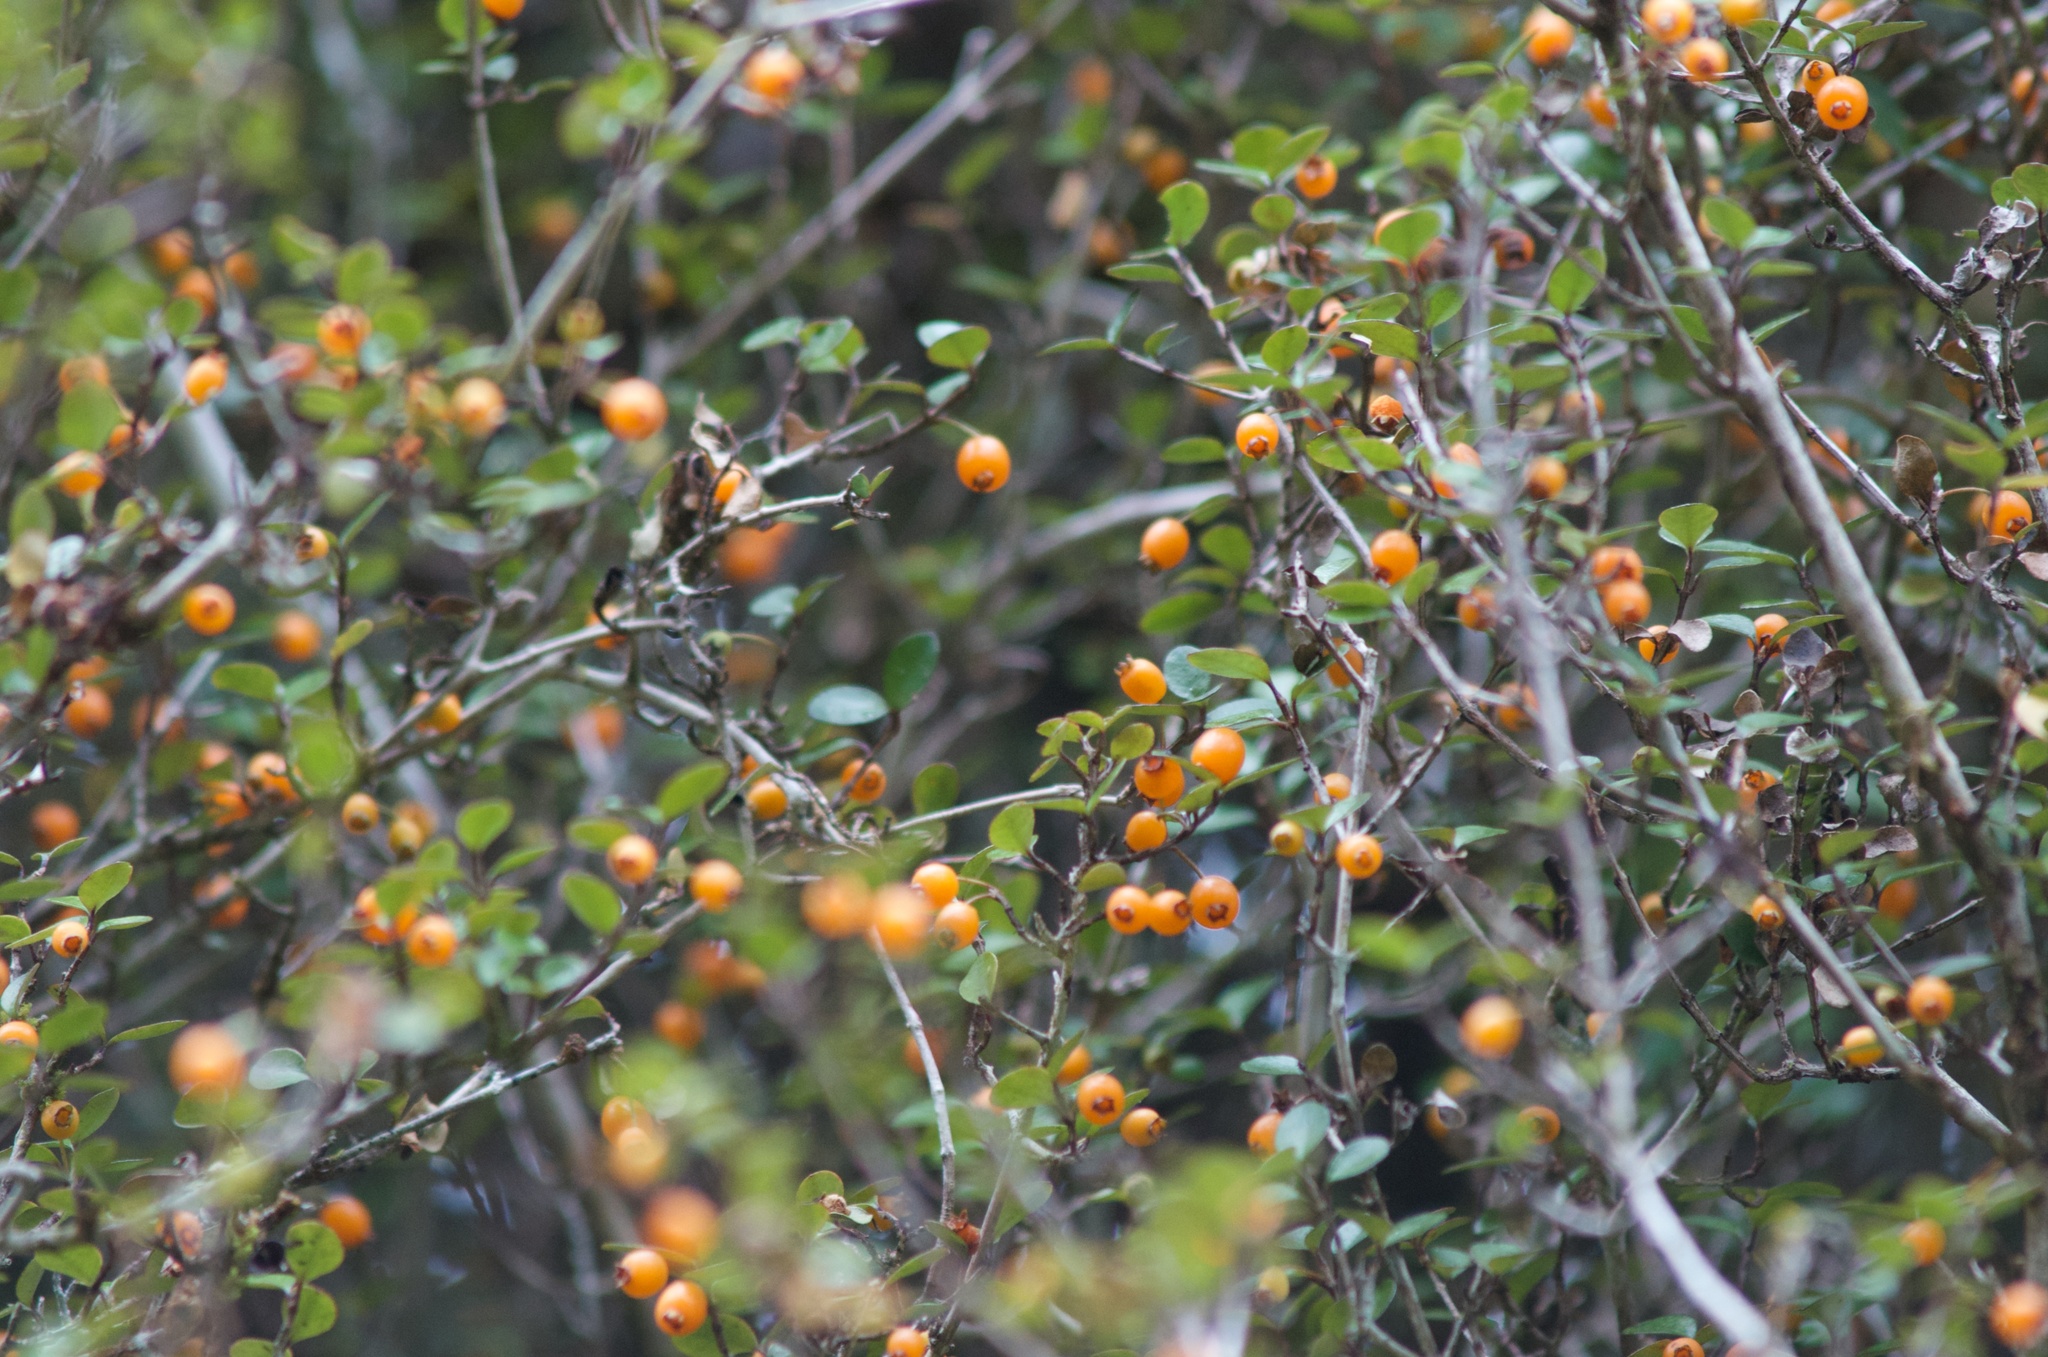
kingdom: Plantae
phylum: Tracheophyta
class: Magnoliopsida
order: Myrtales
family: Myrtaceae
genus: Neomyrtus
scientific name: Neomyrtus pedunculata
